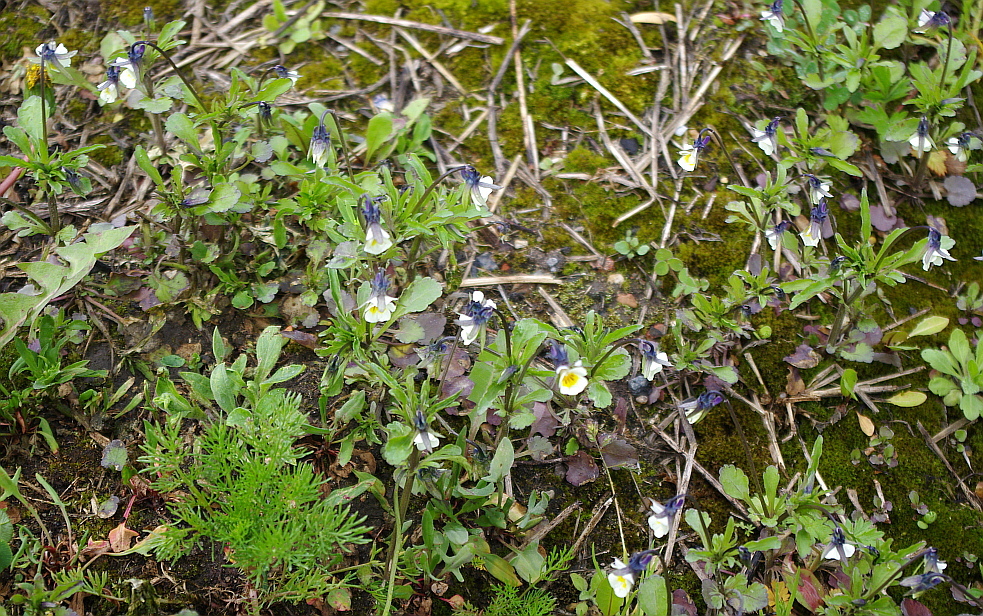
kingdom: Plantae
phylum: Tracheophyta
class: Magnoliopsida
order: Malpighiales
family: Violaceae
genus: Viola
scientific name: Viola arvensis
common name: Field pansy
